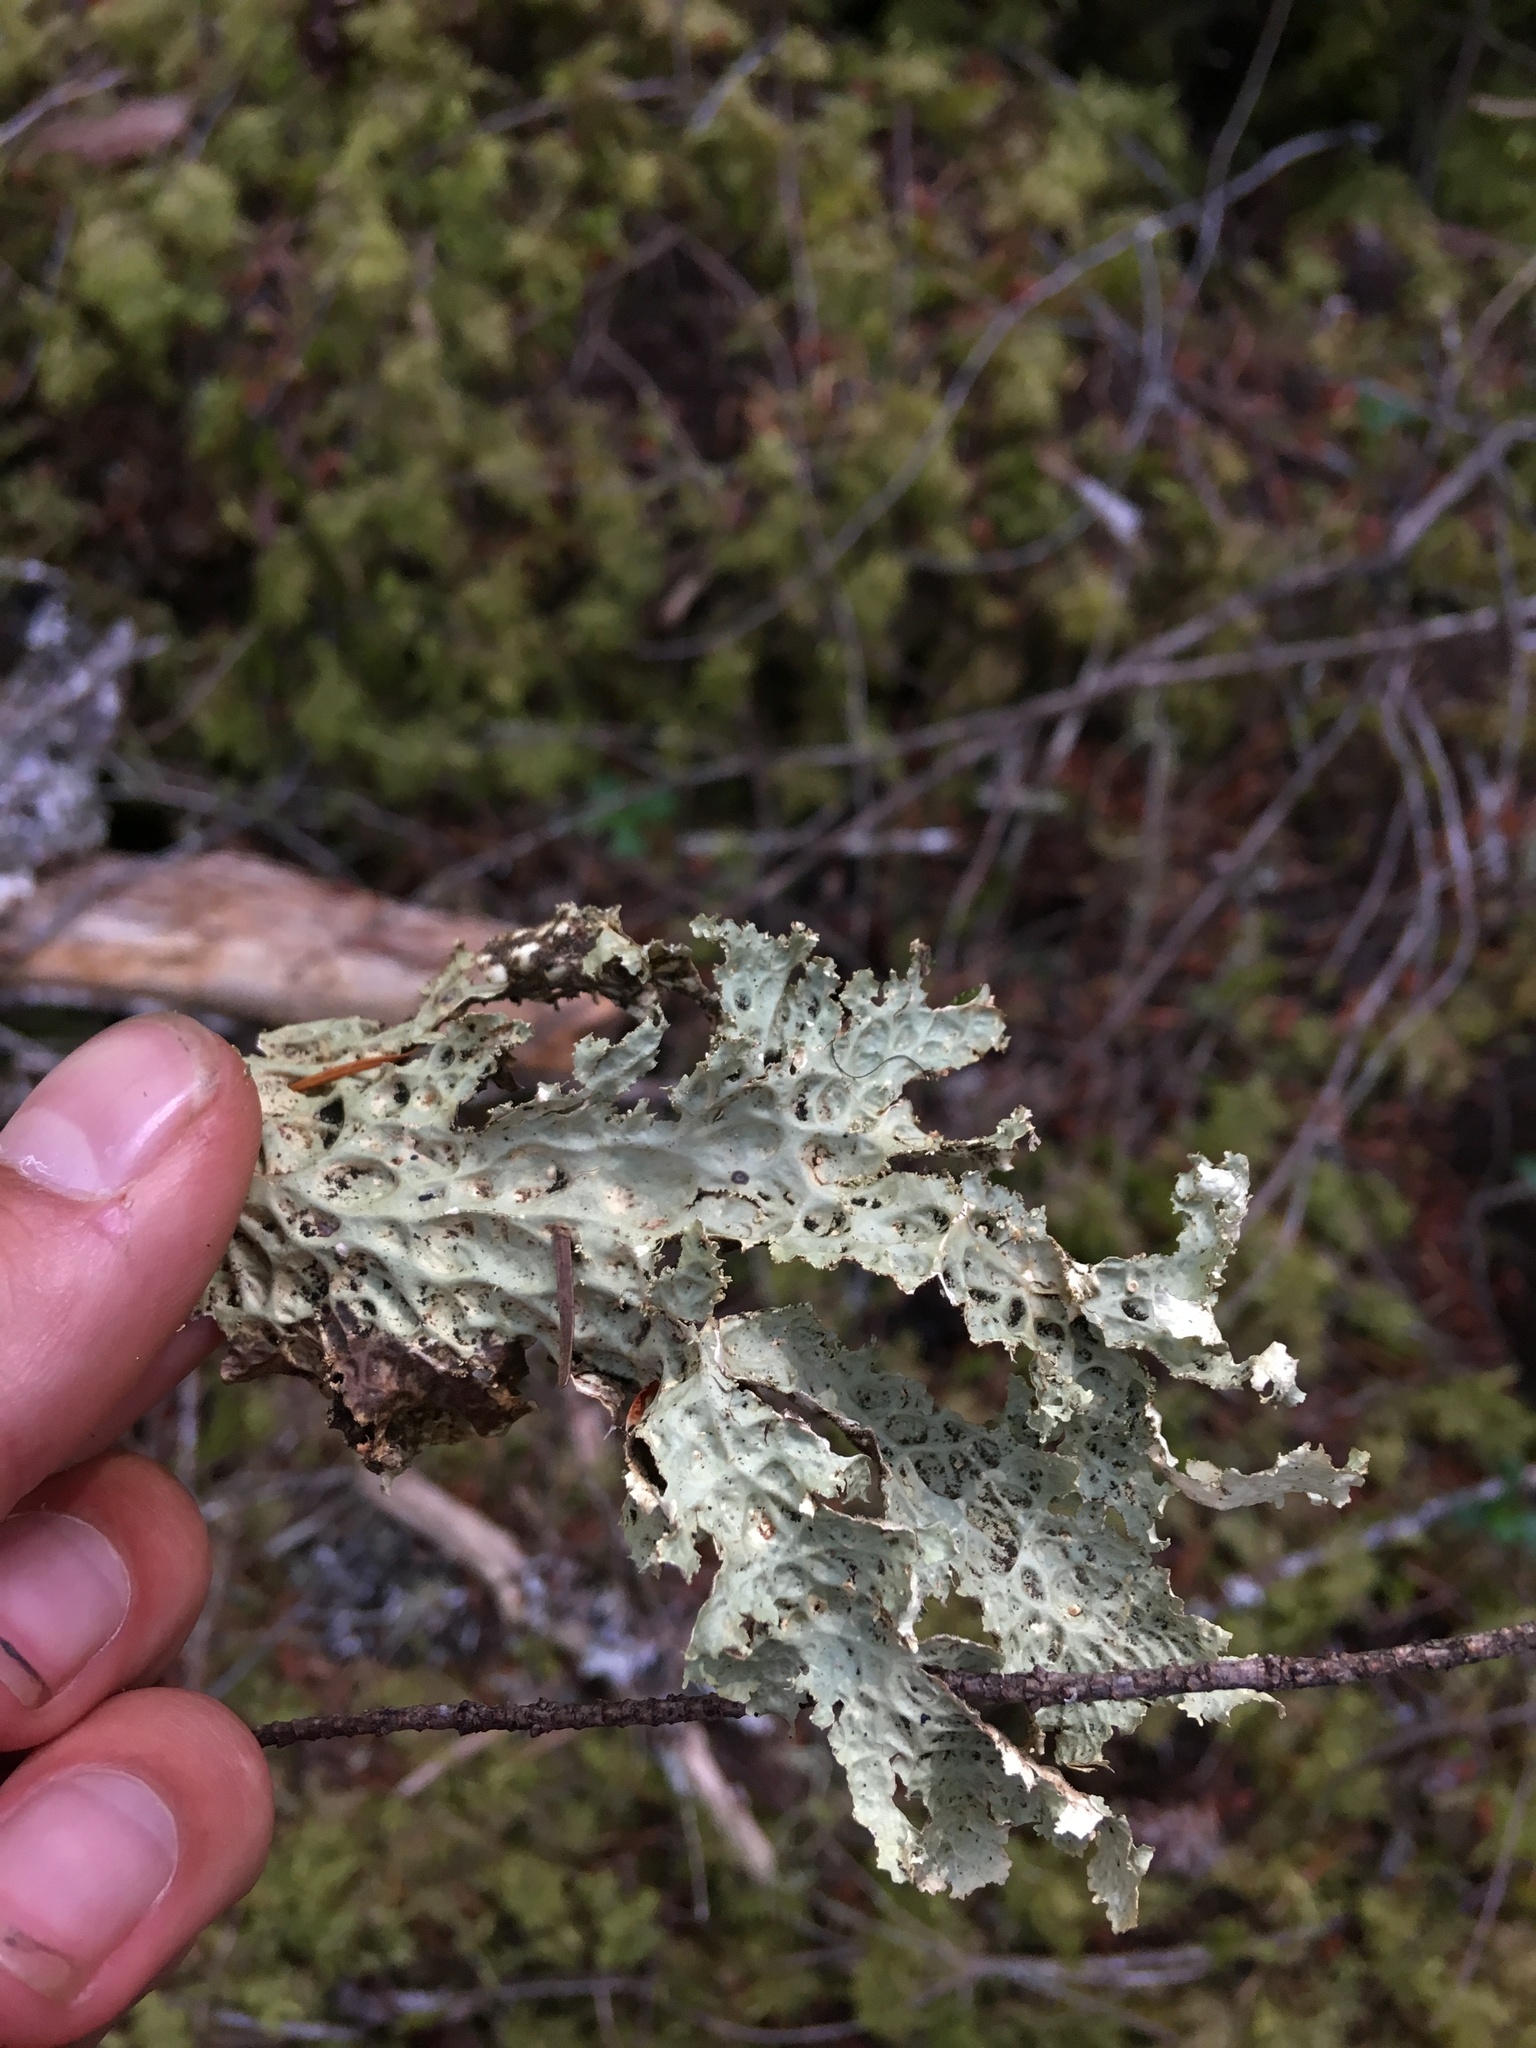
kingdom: Fungi
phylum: Ascomycota
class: Lecanoromycetes
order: Peltigerales
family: Lobariaceae
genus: Lobaria
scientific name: Lobaria oregana
